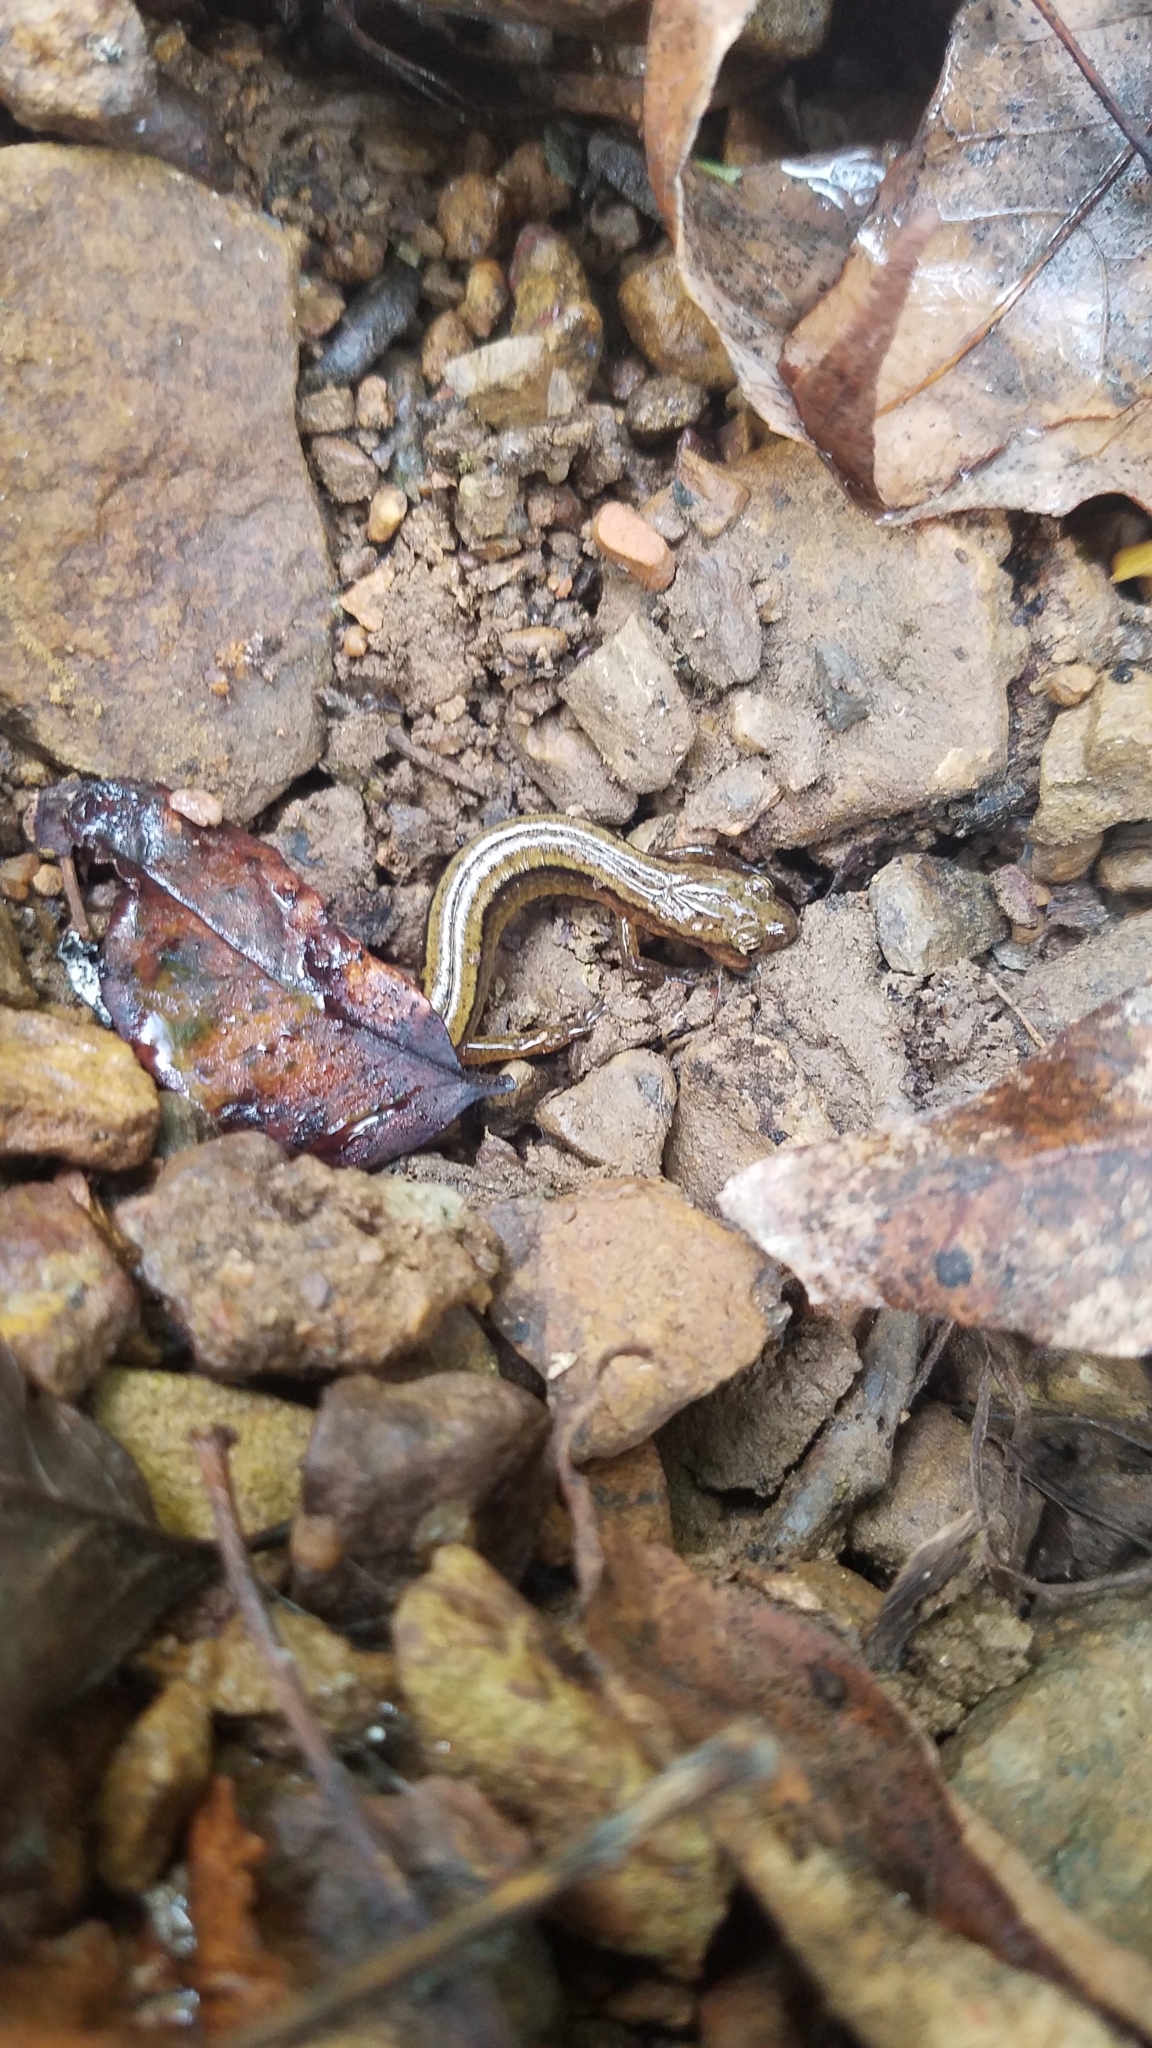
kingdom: Animalia
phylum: Chordata
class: Amphibia
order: Caudata
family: Plethodontidae
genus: Eurycea
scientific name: Eurycea bislineata
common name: Northern two-lined salamander
